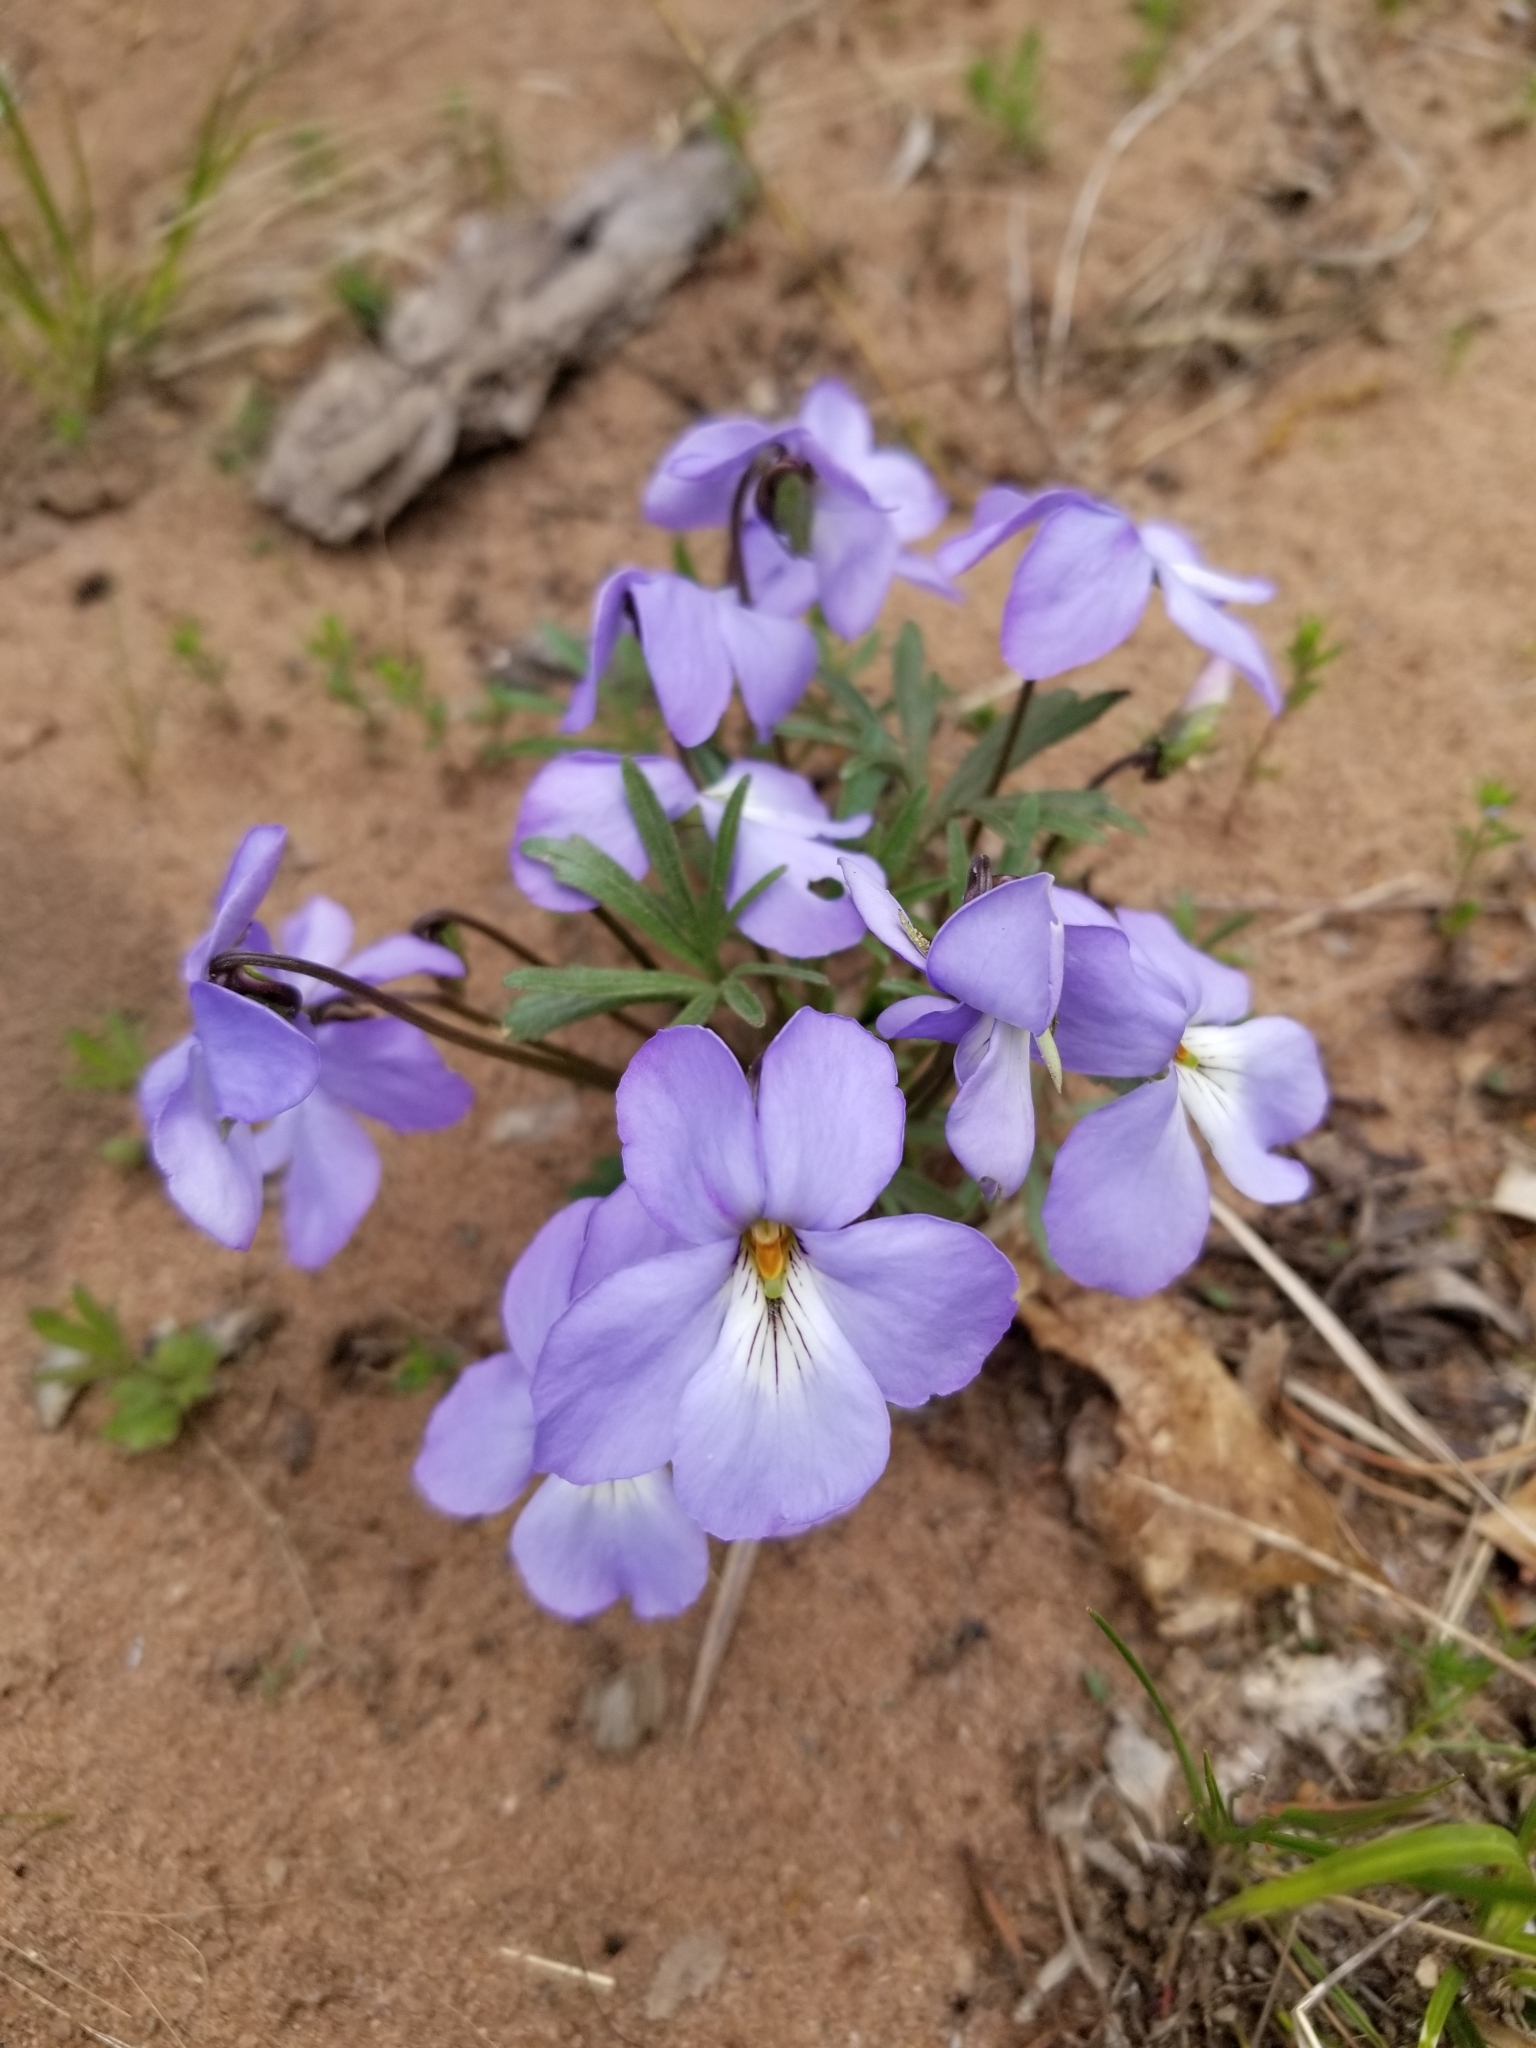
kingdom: Plantae
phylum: Tracheophyta
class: Magnoliopsida
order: Malpighiales
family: Violaceae
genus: Viola
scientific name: Viola pedata
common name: Pansy violet
